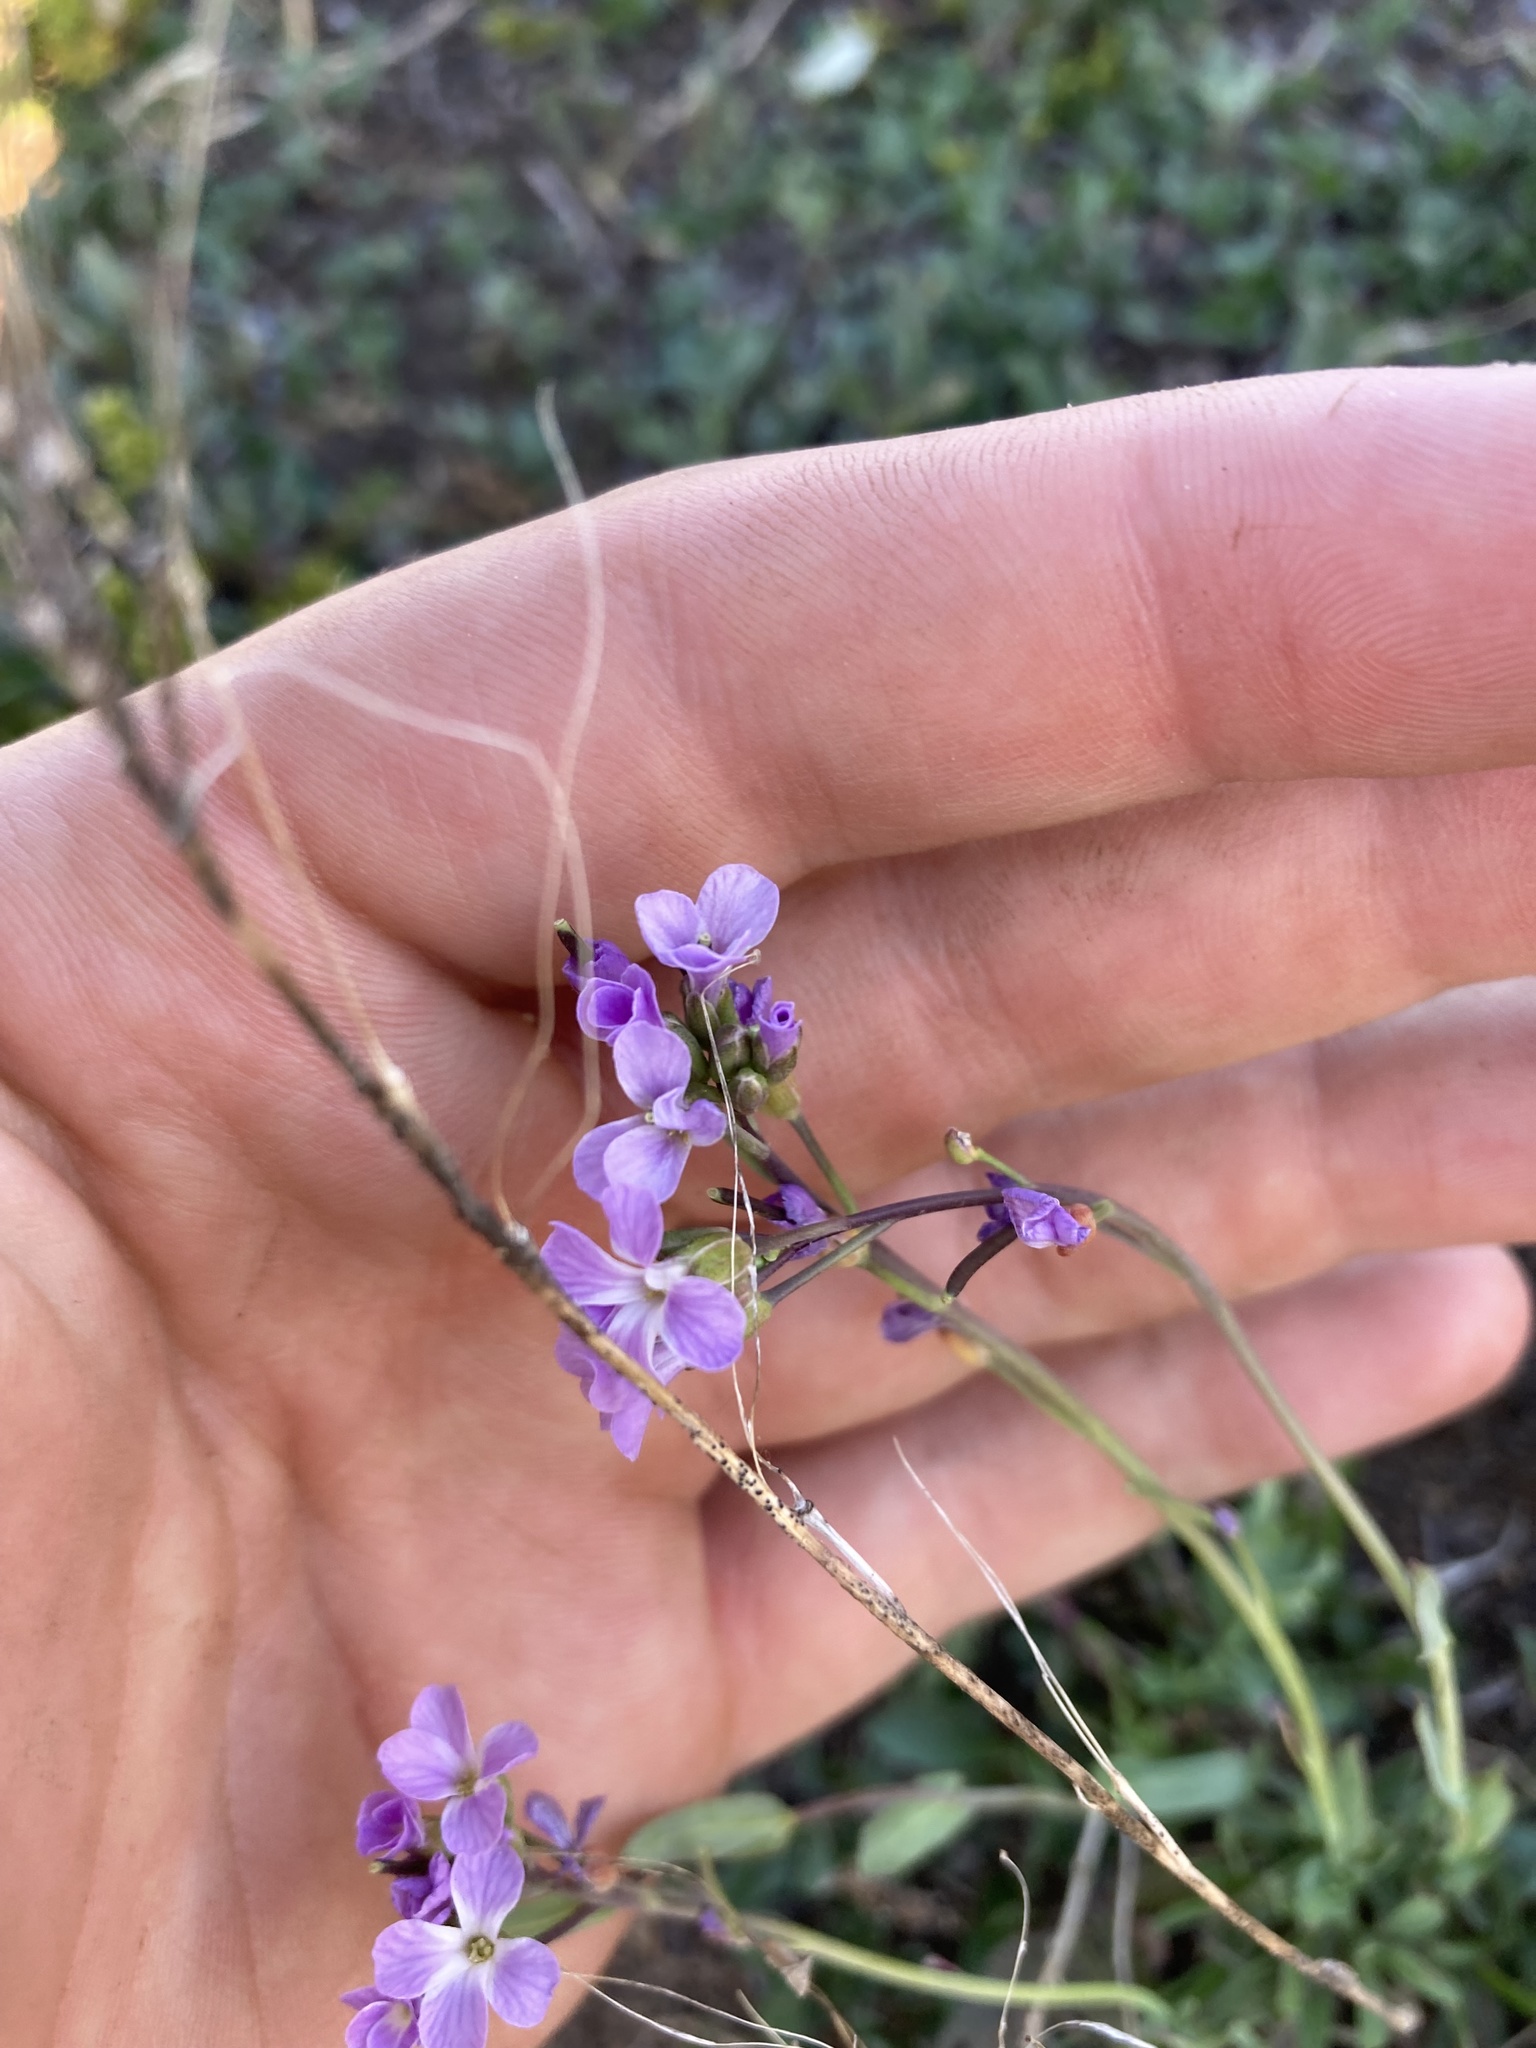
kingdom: Plantae
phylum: Tracheophyta
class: Magnoliopsida
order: Brassicales
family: Brassicaceae
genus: Boechera
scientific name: Boechera lyallii
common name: Lyall's rockcress
